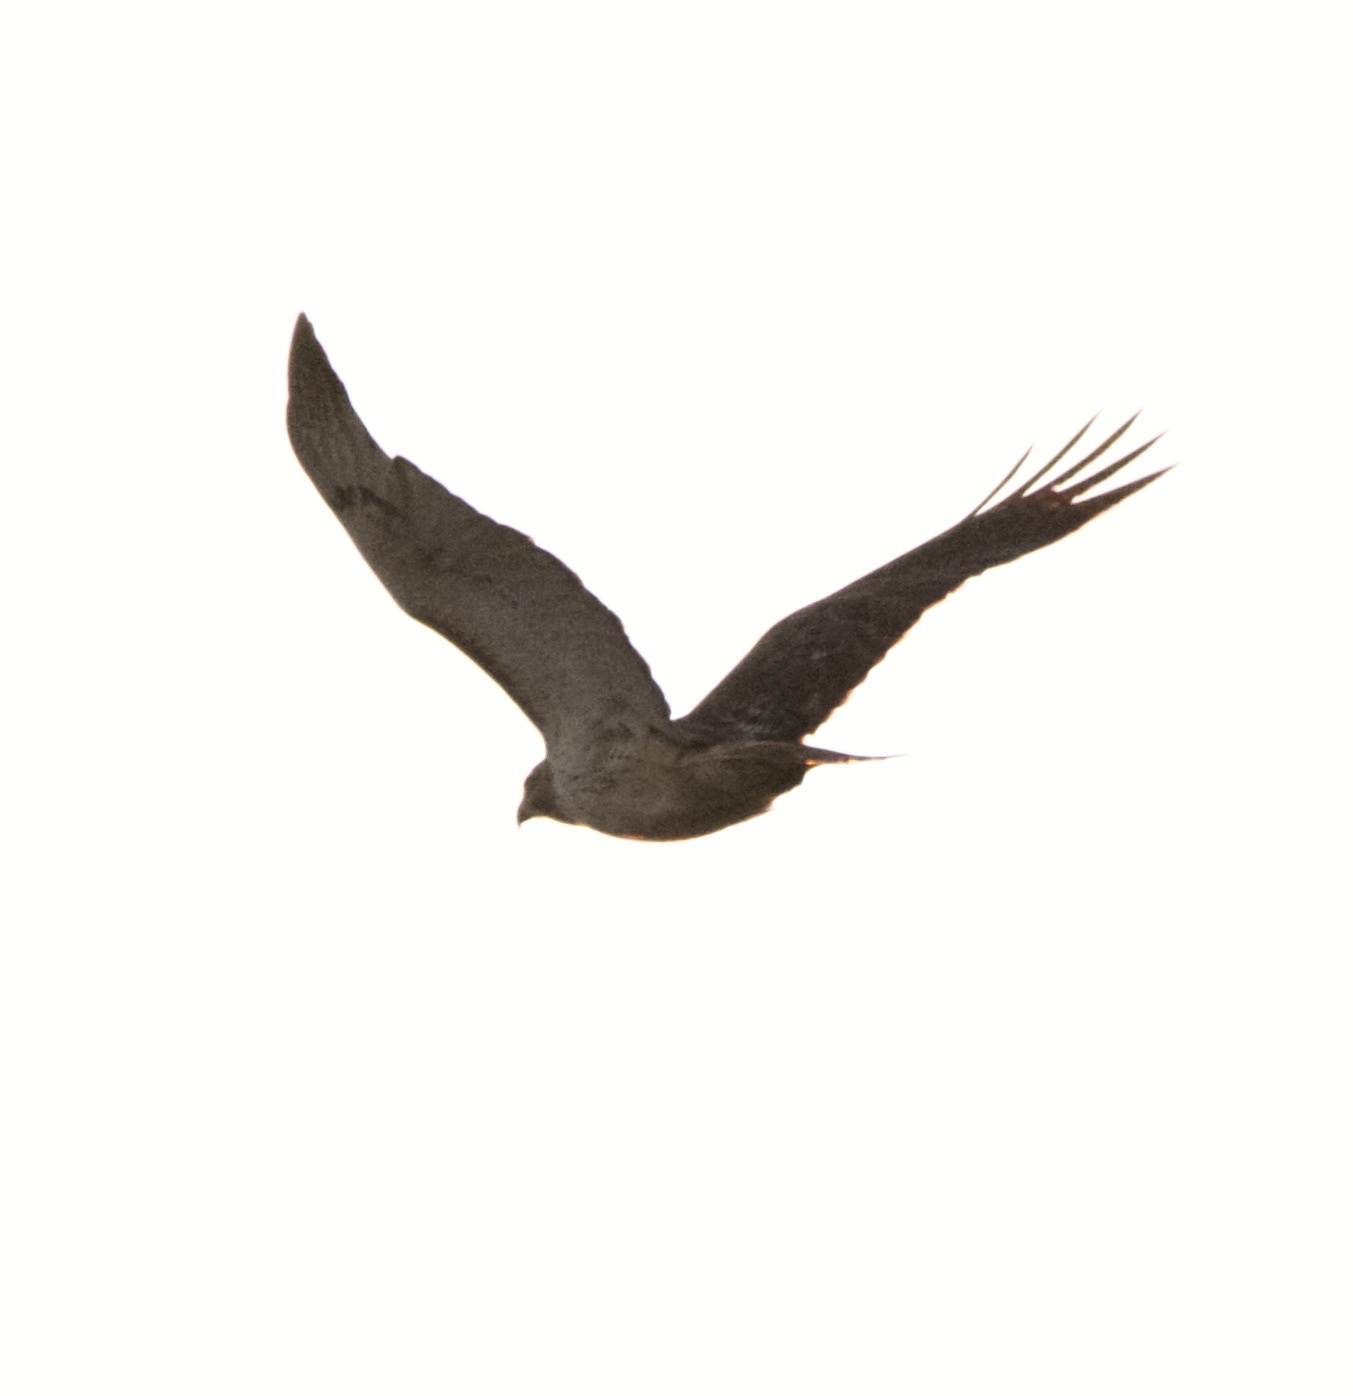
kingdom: Animalia
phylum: Chordata
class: Aves
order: Accipitriformes
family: Accipitridae
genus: Buteo
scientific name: Buteo jamaicensis
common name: Red-tailed hawk
